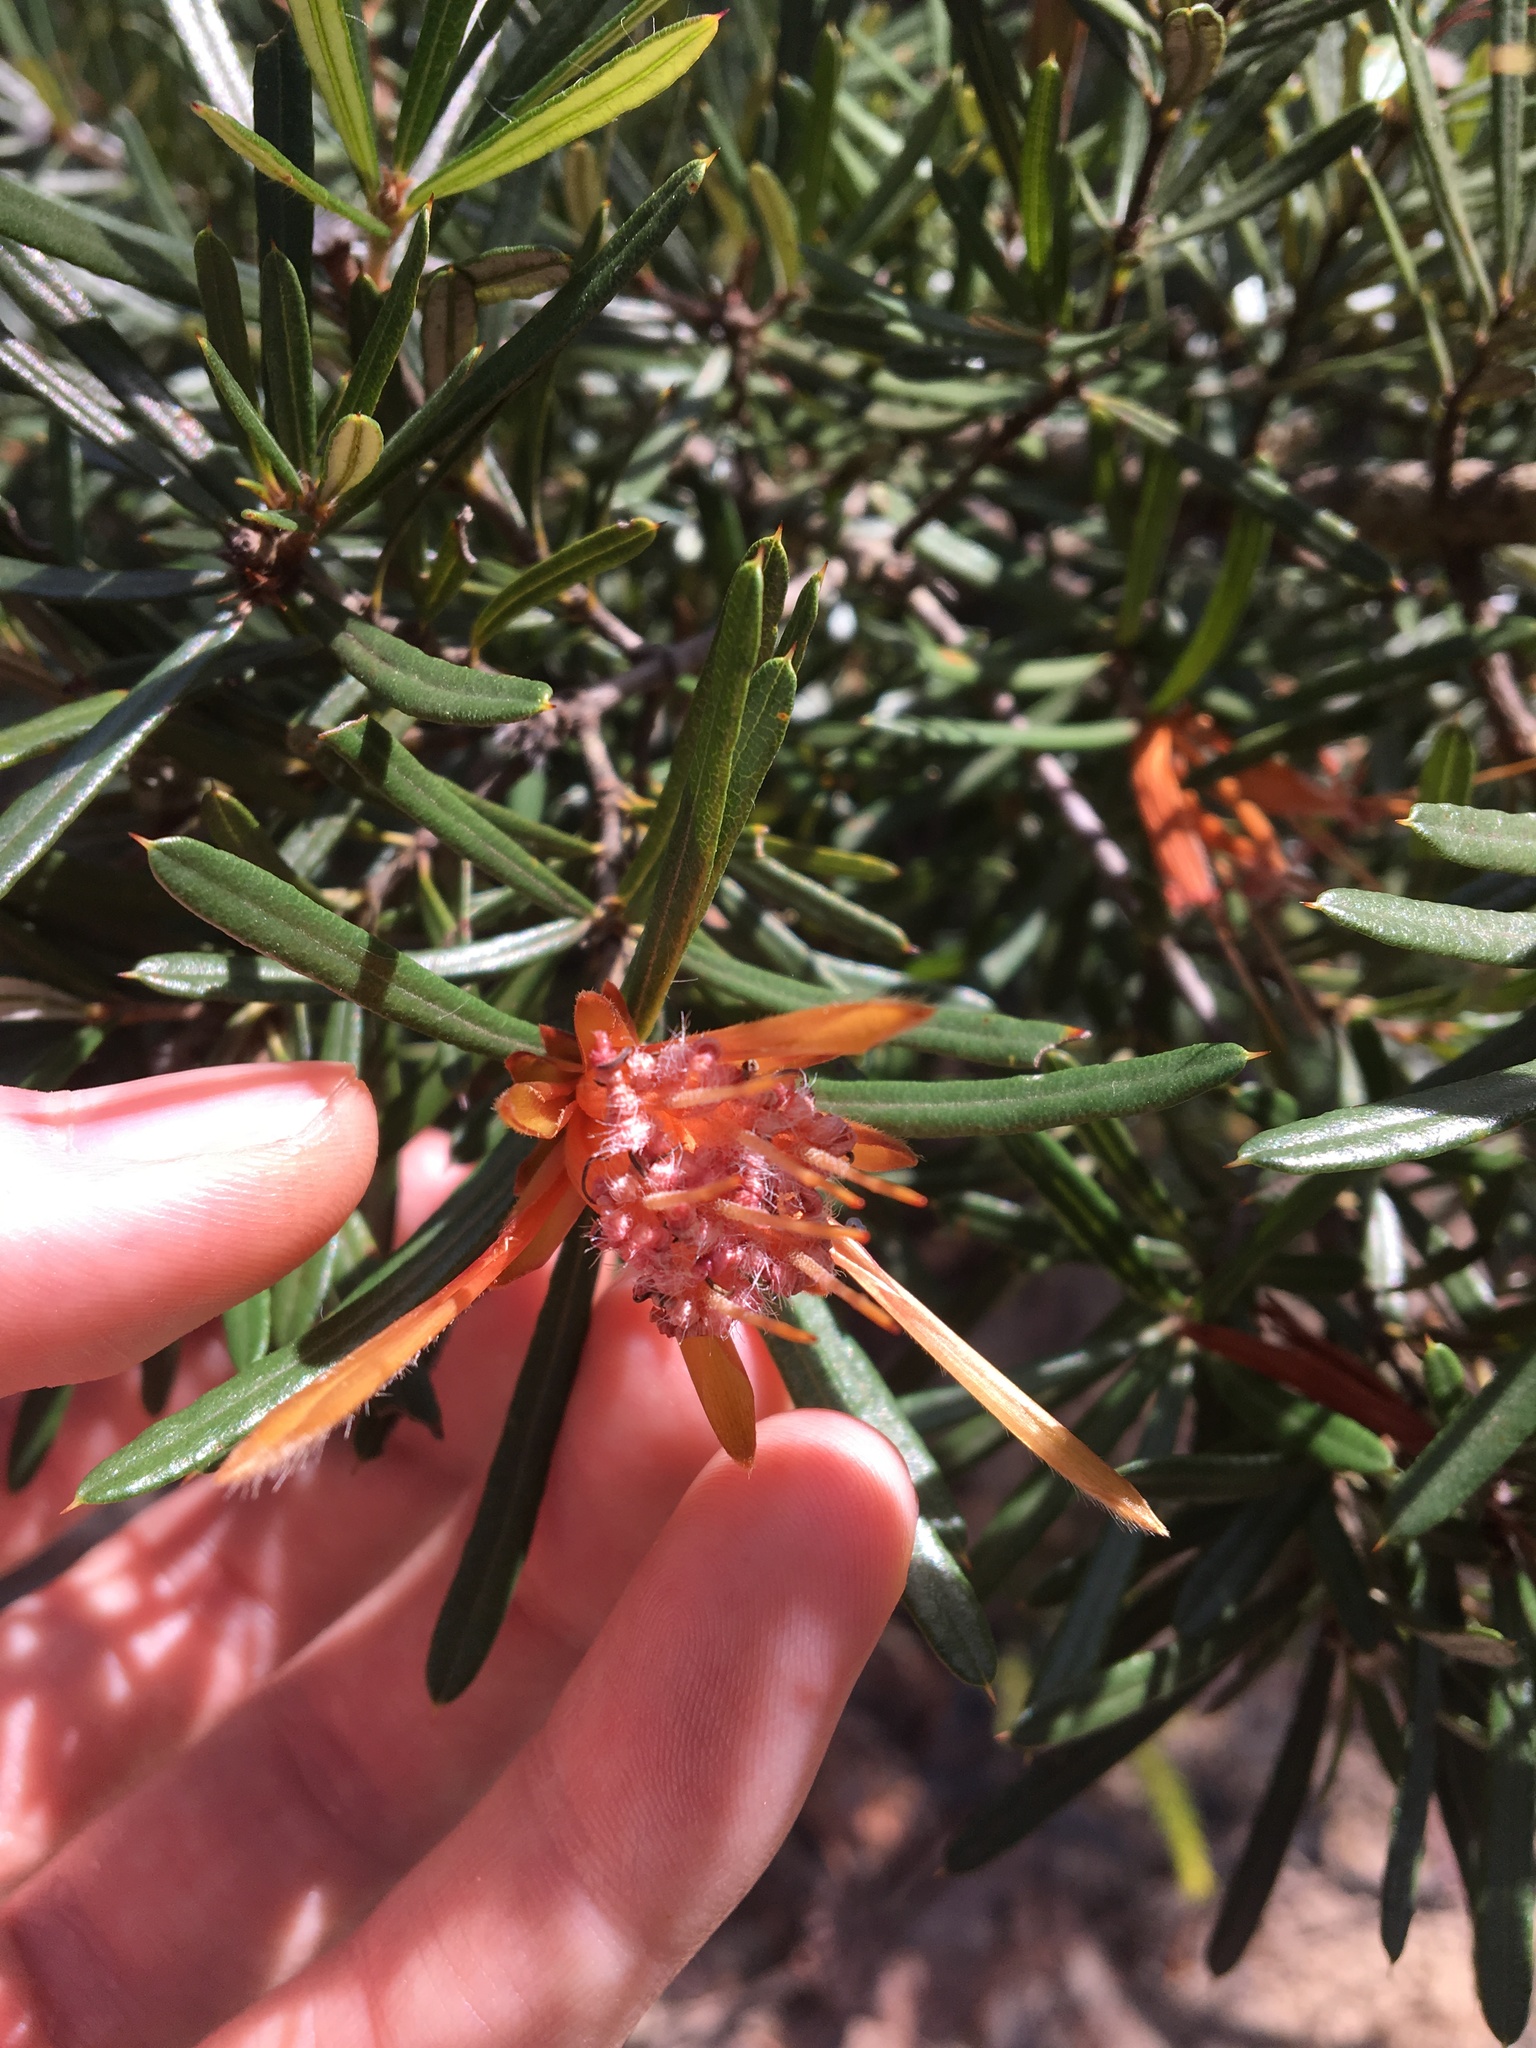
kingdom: Plantae
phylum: Tracheophyta
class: Magnoliopsida
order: Proteales
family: Proteaceae
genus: Lambertia
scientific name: Lambertia formosa
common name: Mountain-devil
